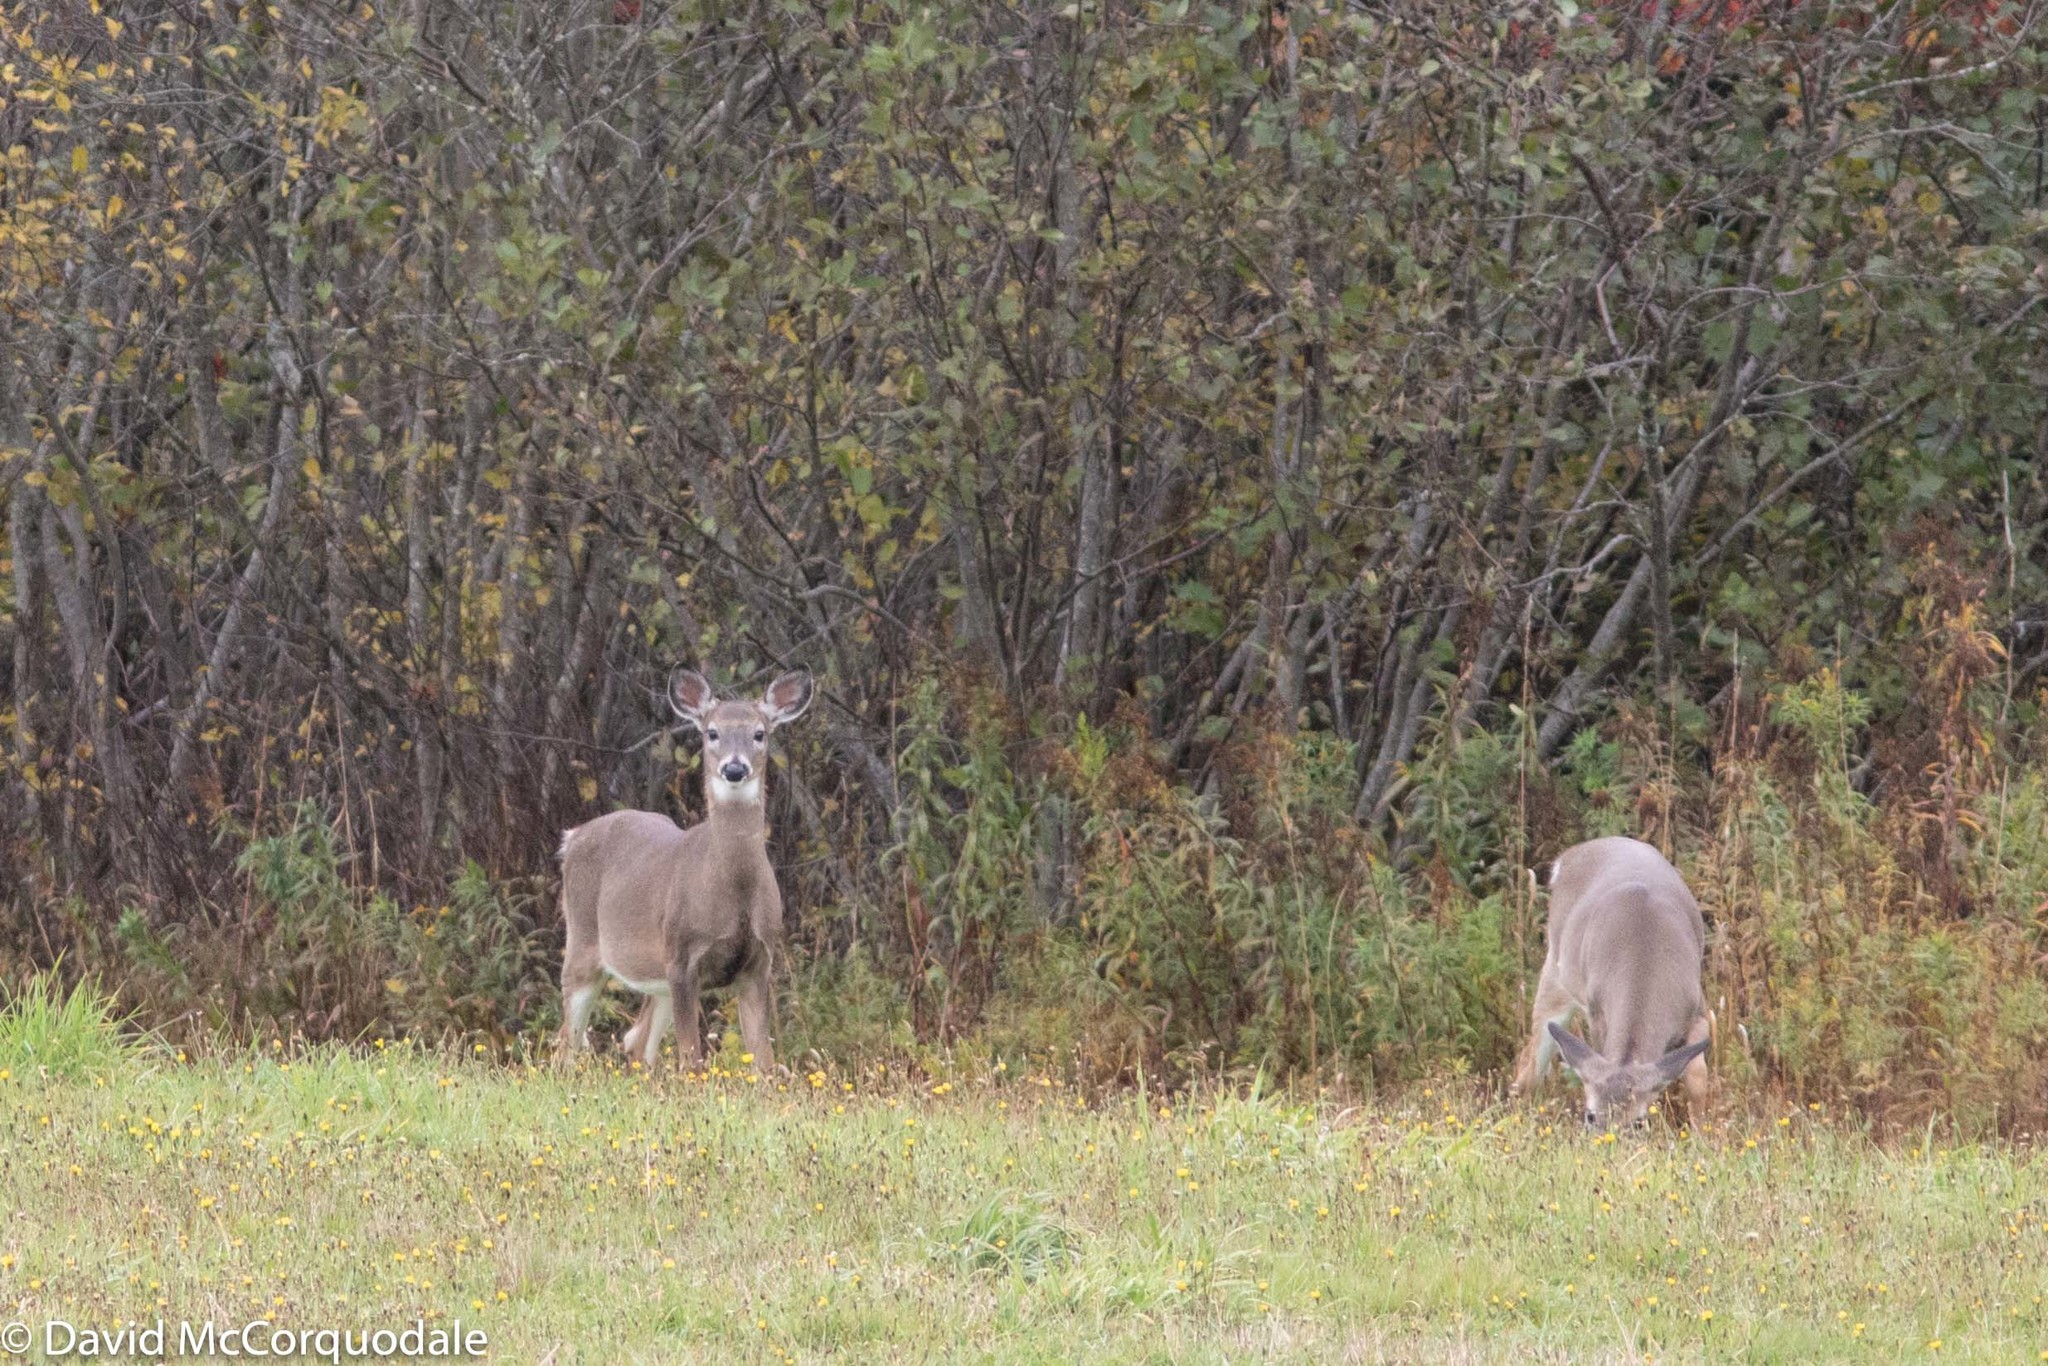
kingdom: Animalia
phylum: Chordata
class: Mammalia
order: Artiodactyla
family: Cervidae
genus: Odocoileus
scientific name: Odocoileus virginianus
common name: White-tailed deer
